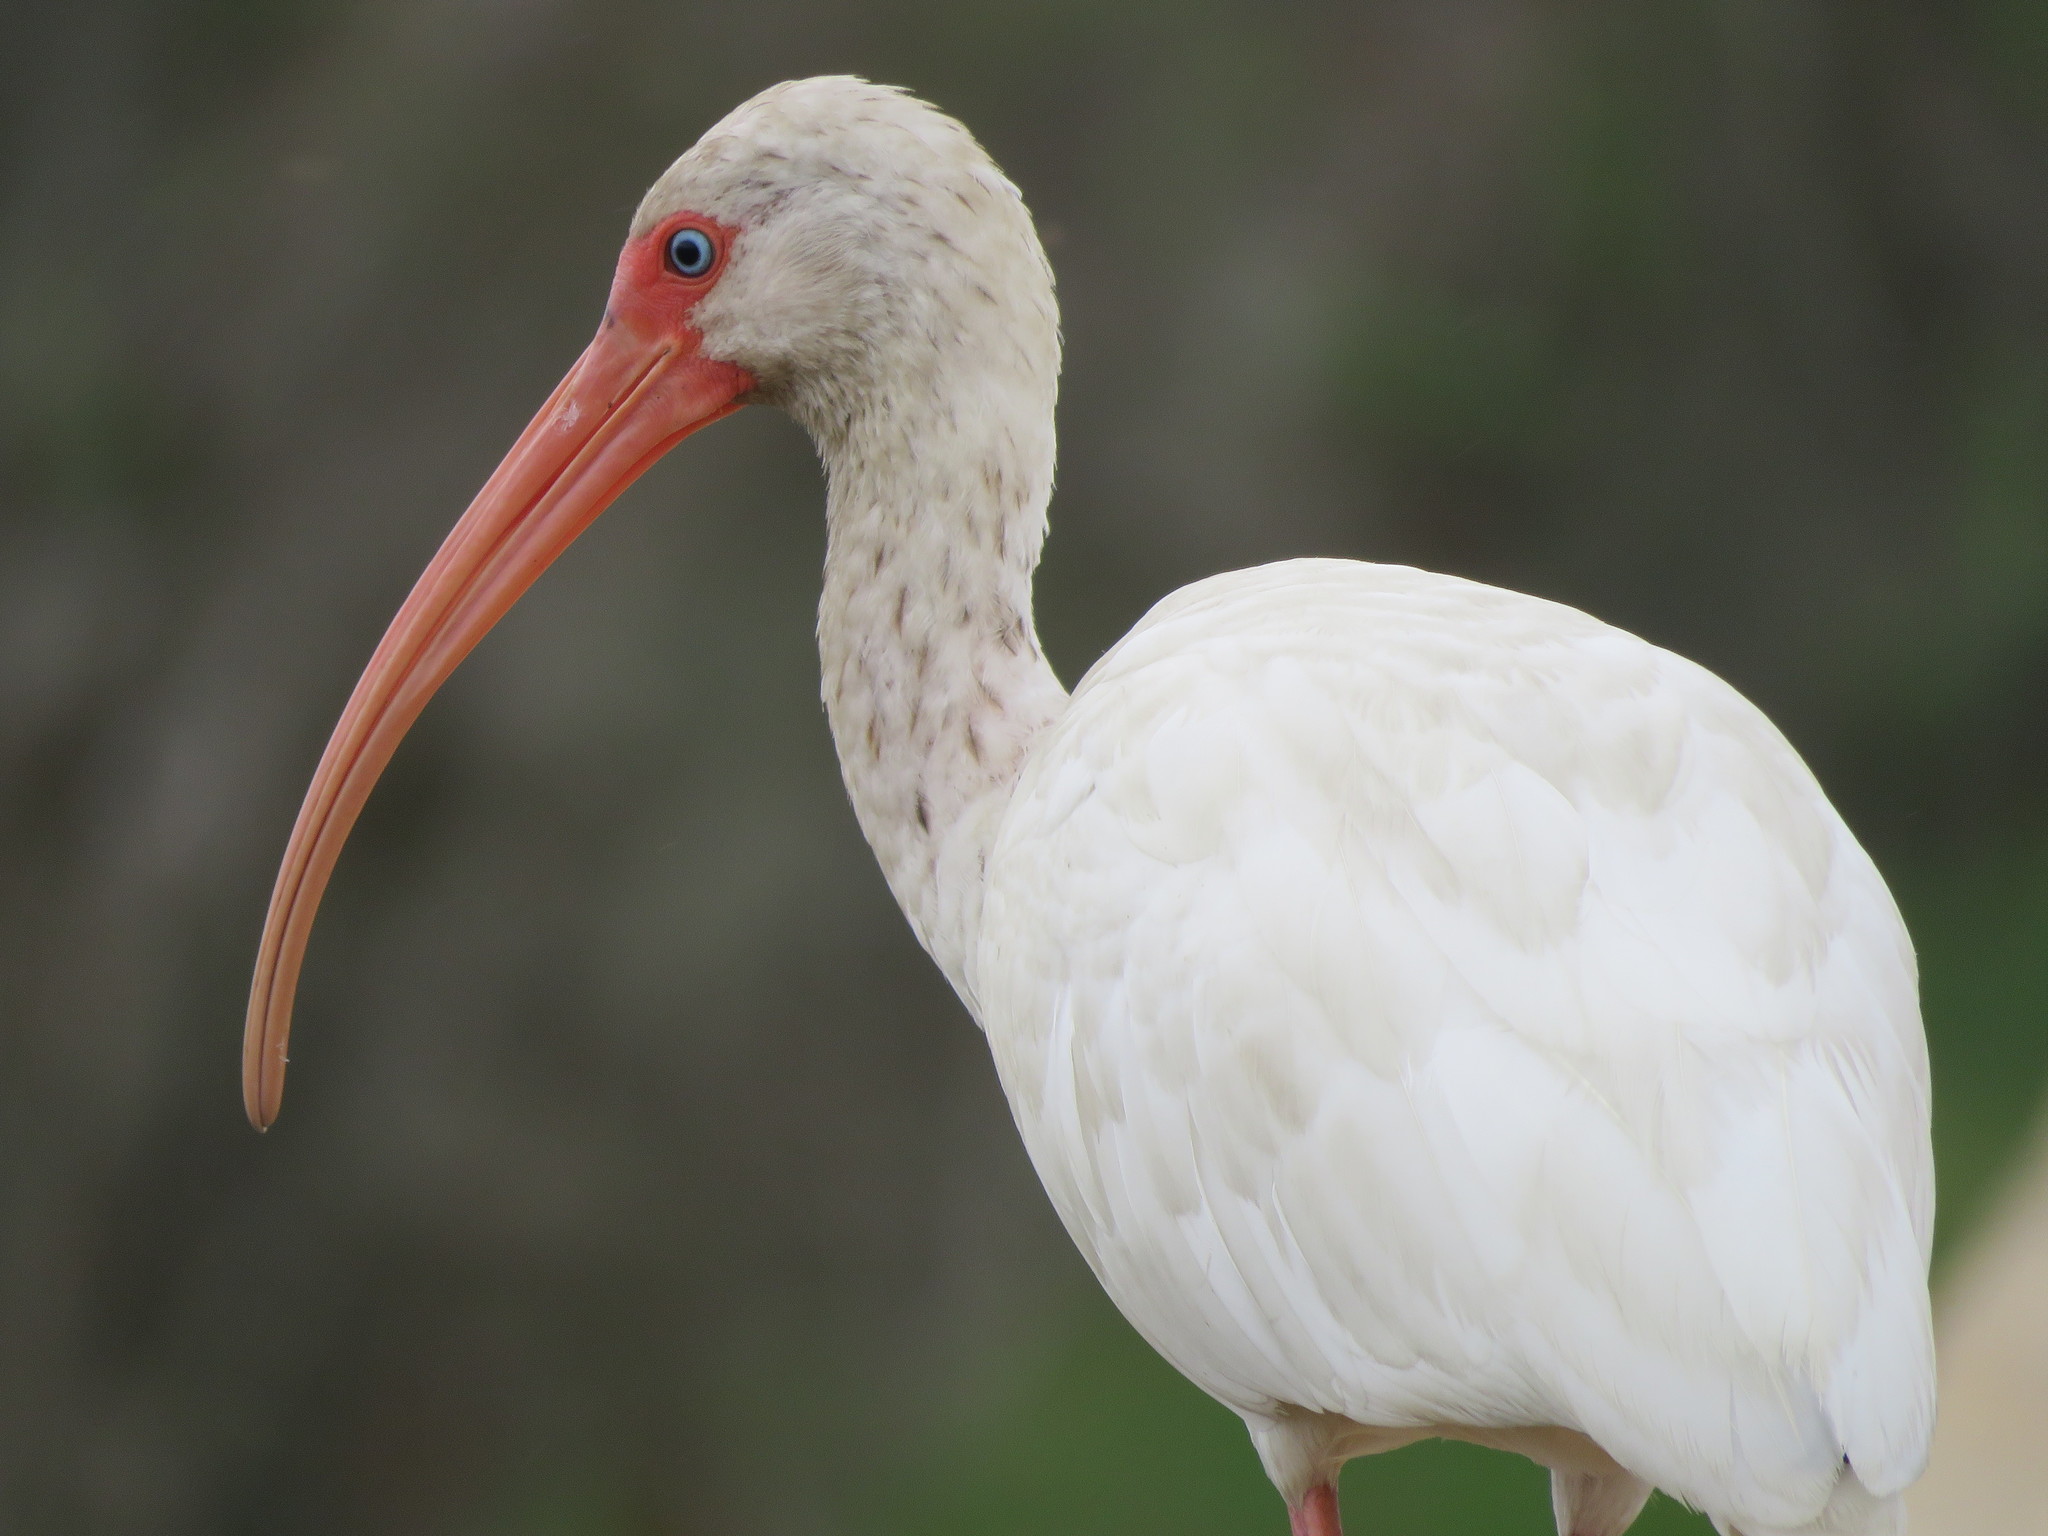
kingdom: Animalia
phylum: Chordata
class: Aves
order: Pelecaniformes
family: Threskiornithidae
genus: Eudocimus
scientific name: Eudocimus albus
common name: White ibis
